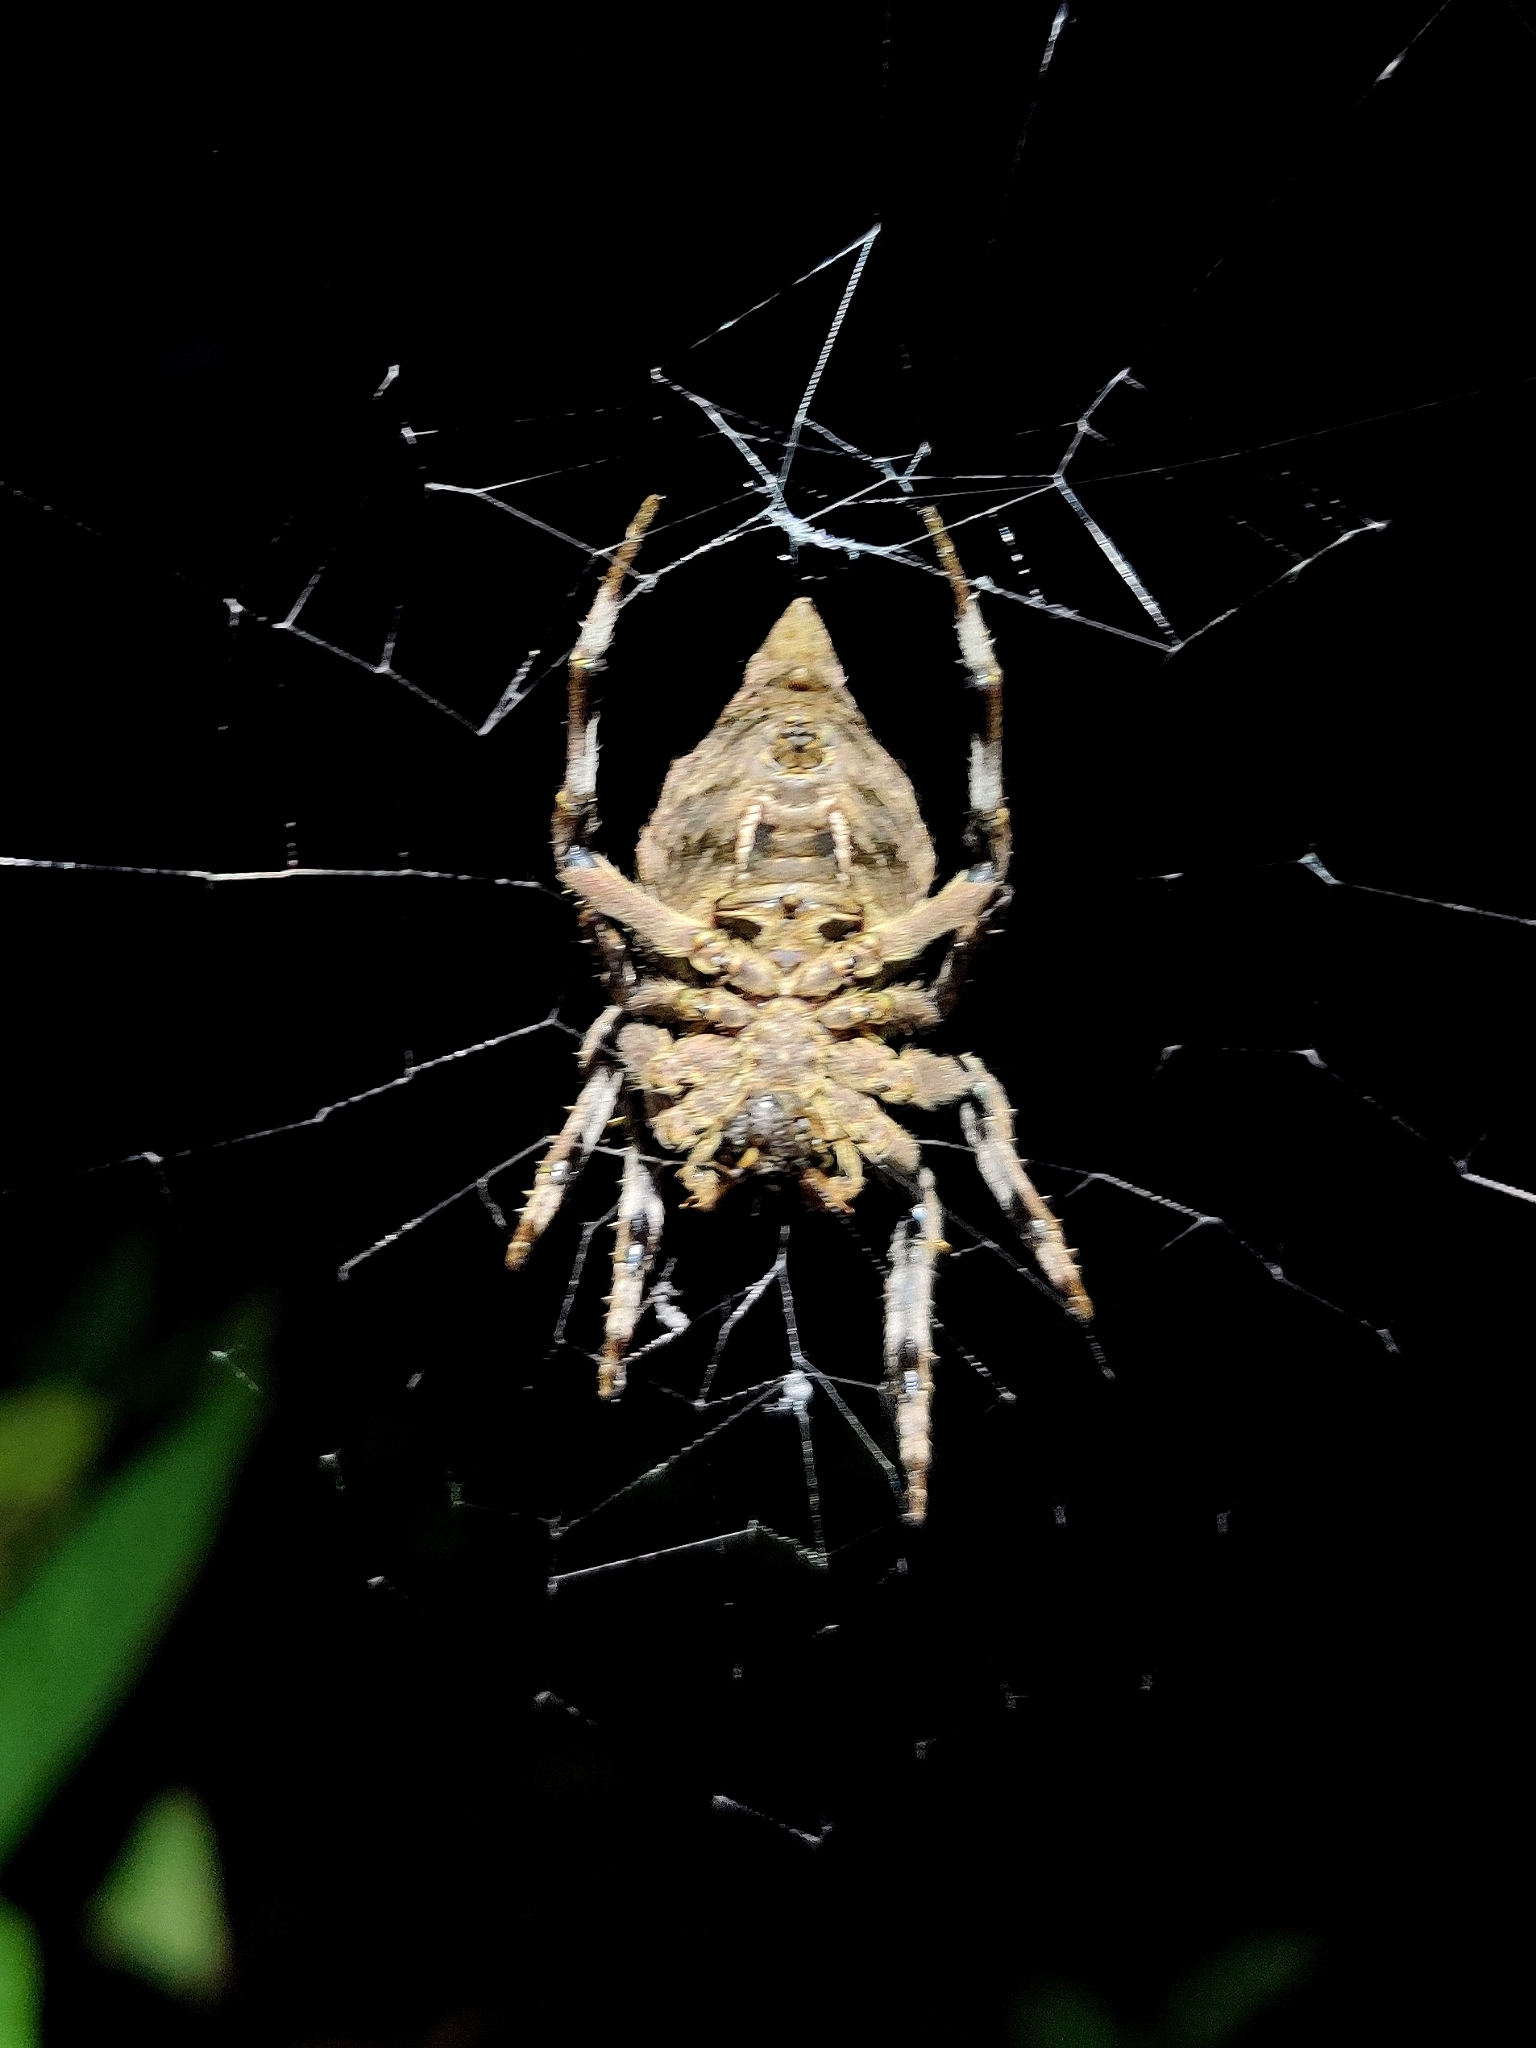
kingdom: Animalia
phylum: Arthropoda
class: Arachnida
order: Araneae
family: Araneidae
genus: Parawixia
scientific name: Parawixia dehaani
